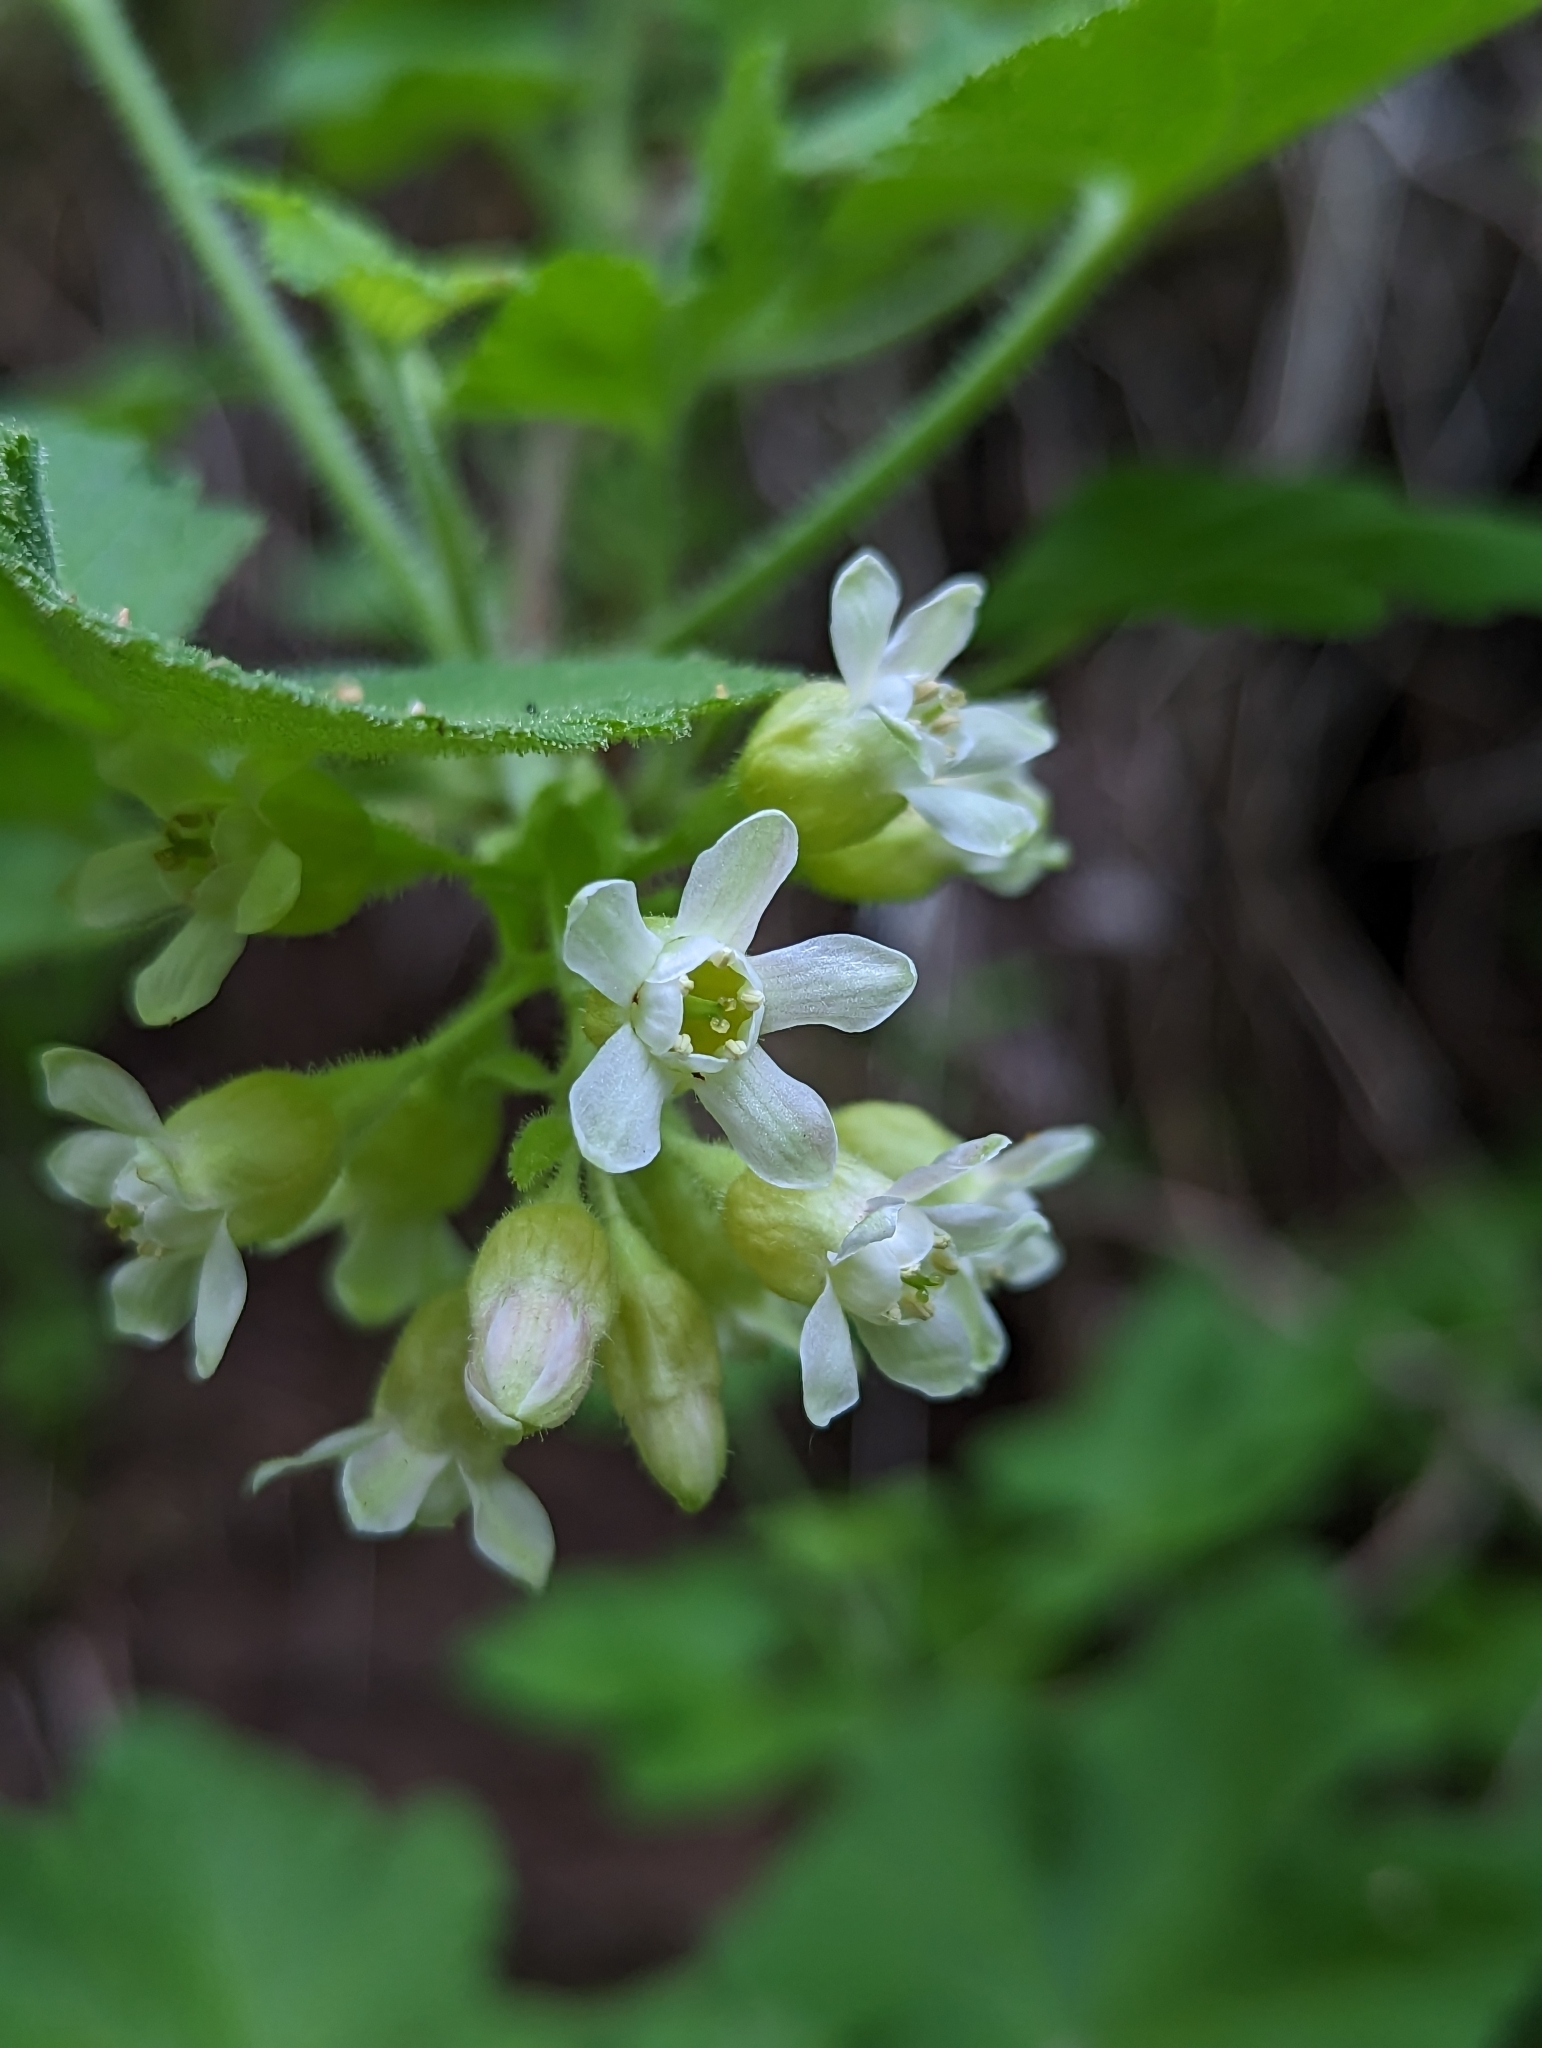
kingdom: Plantae
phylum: Tracheophyta
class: Magnoliopsida
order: Saxifragales
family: Grossulariaceae
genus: Ribes
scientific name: Ribes viscosissimum
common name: Sticky currant
